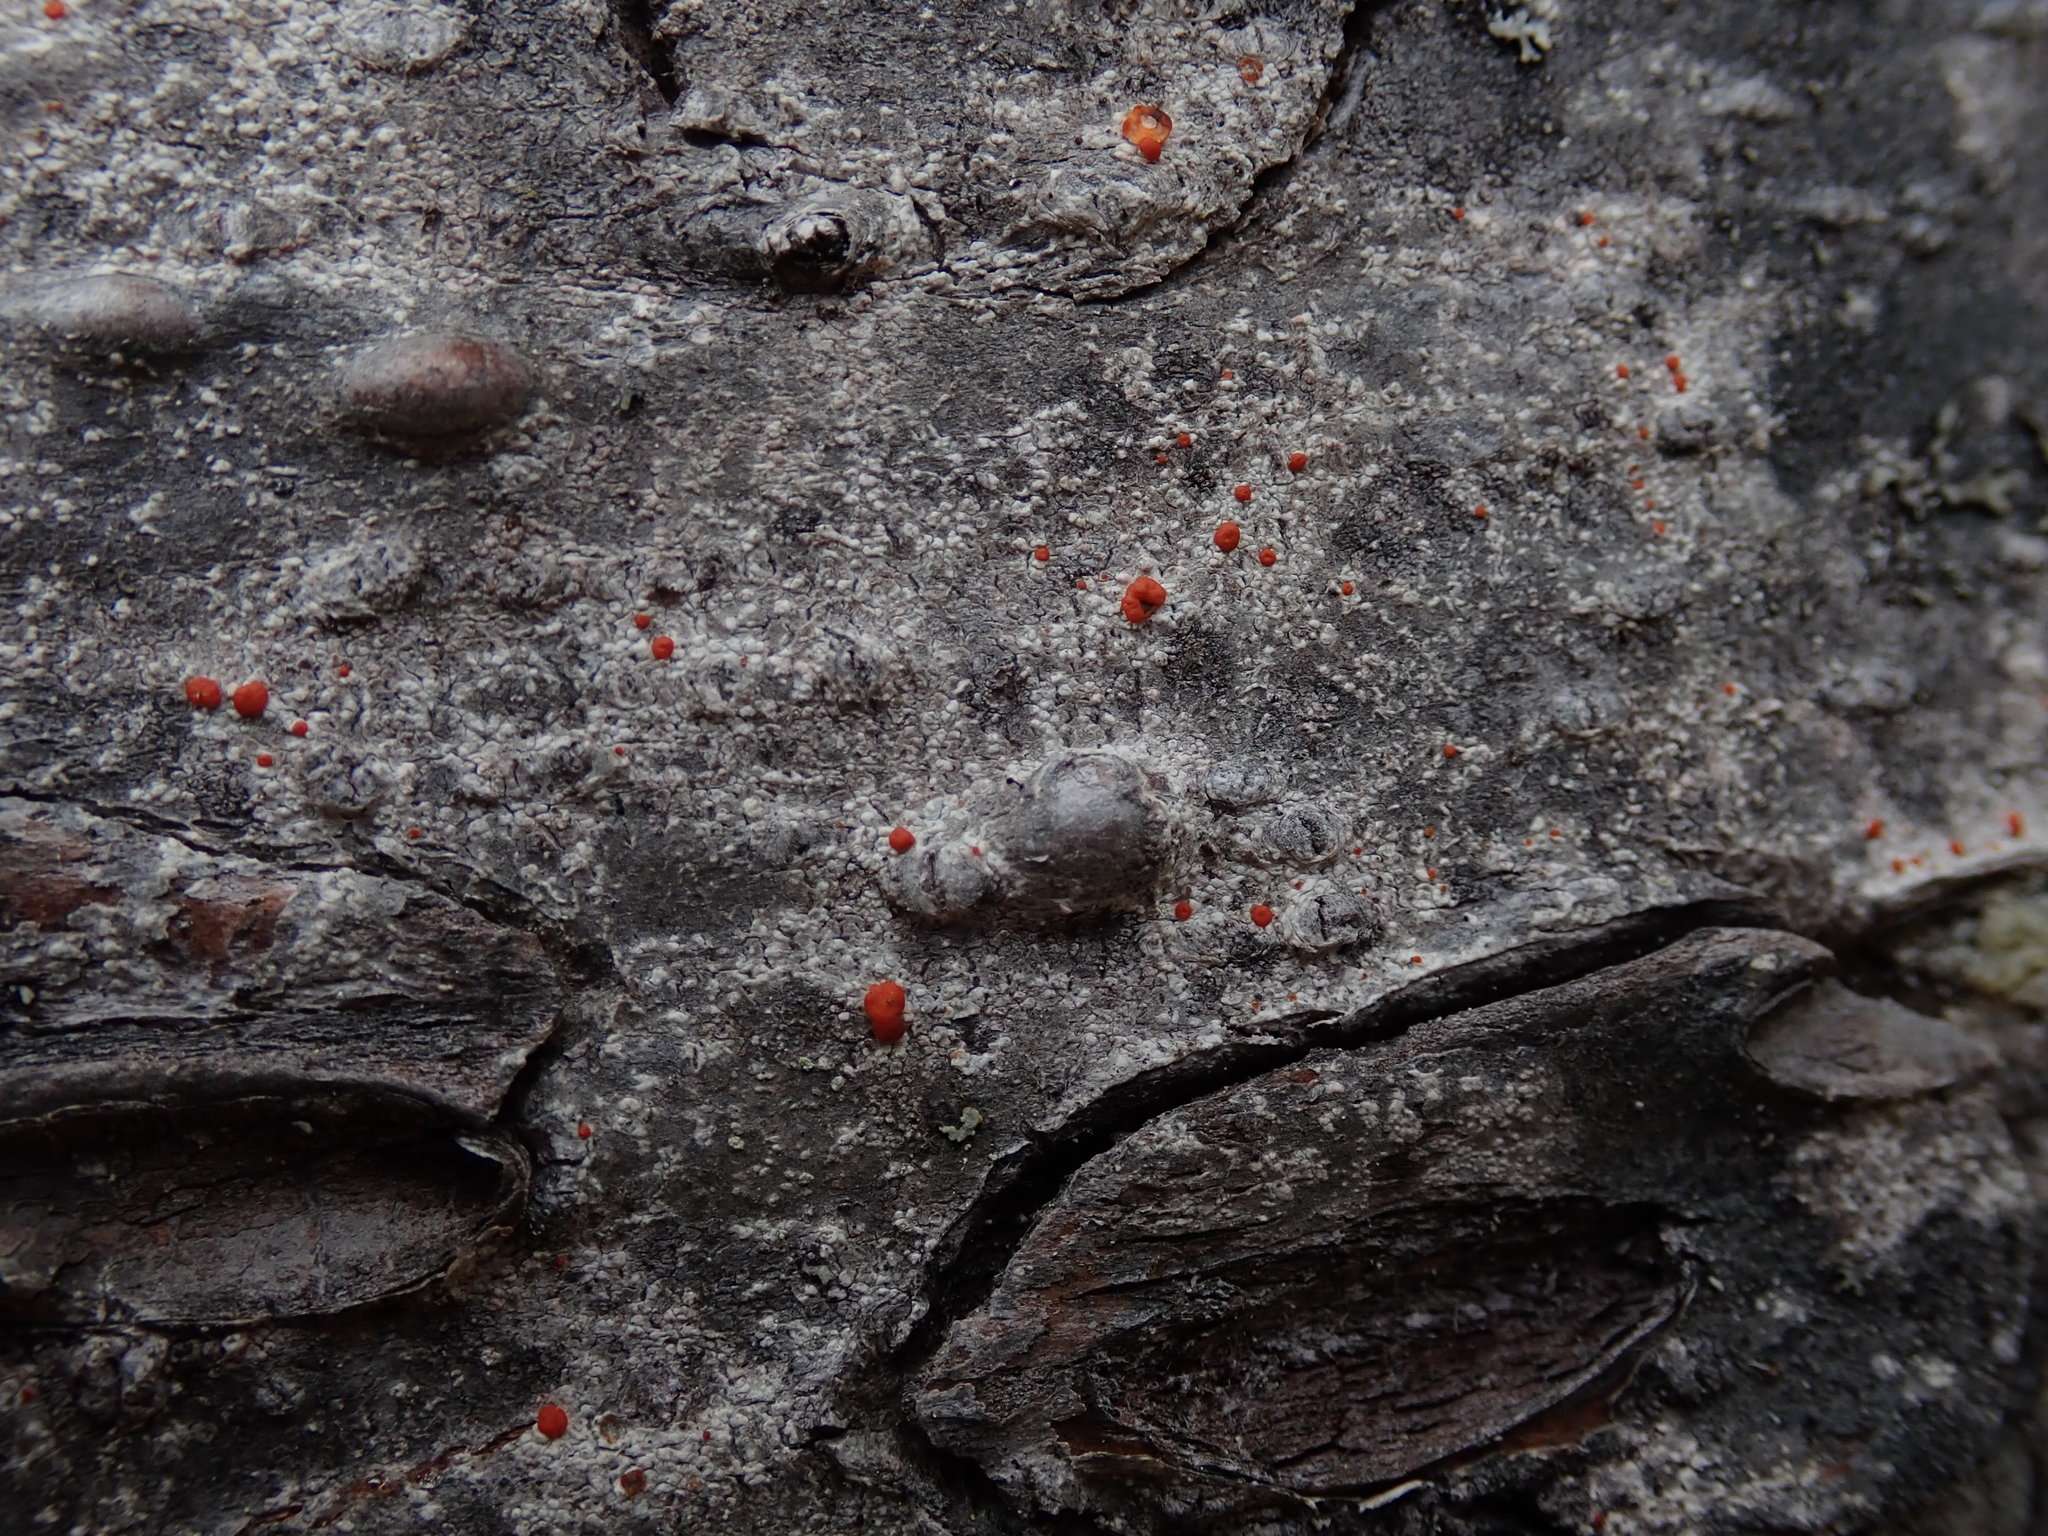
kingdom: Fungi
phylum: Ascomycota
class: Lecanoromycetes
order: Lecanorales
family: Ramboldiaceae
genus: Ramboldia
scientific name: Ramboldia gowardiana
